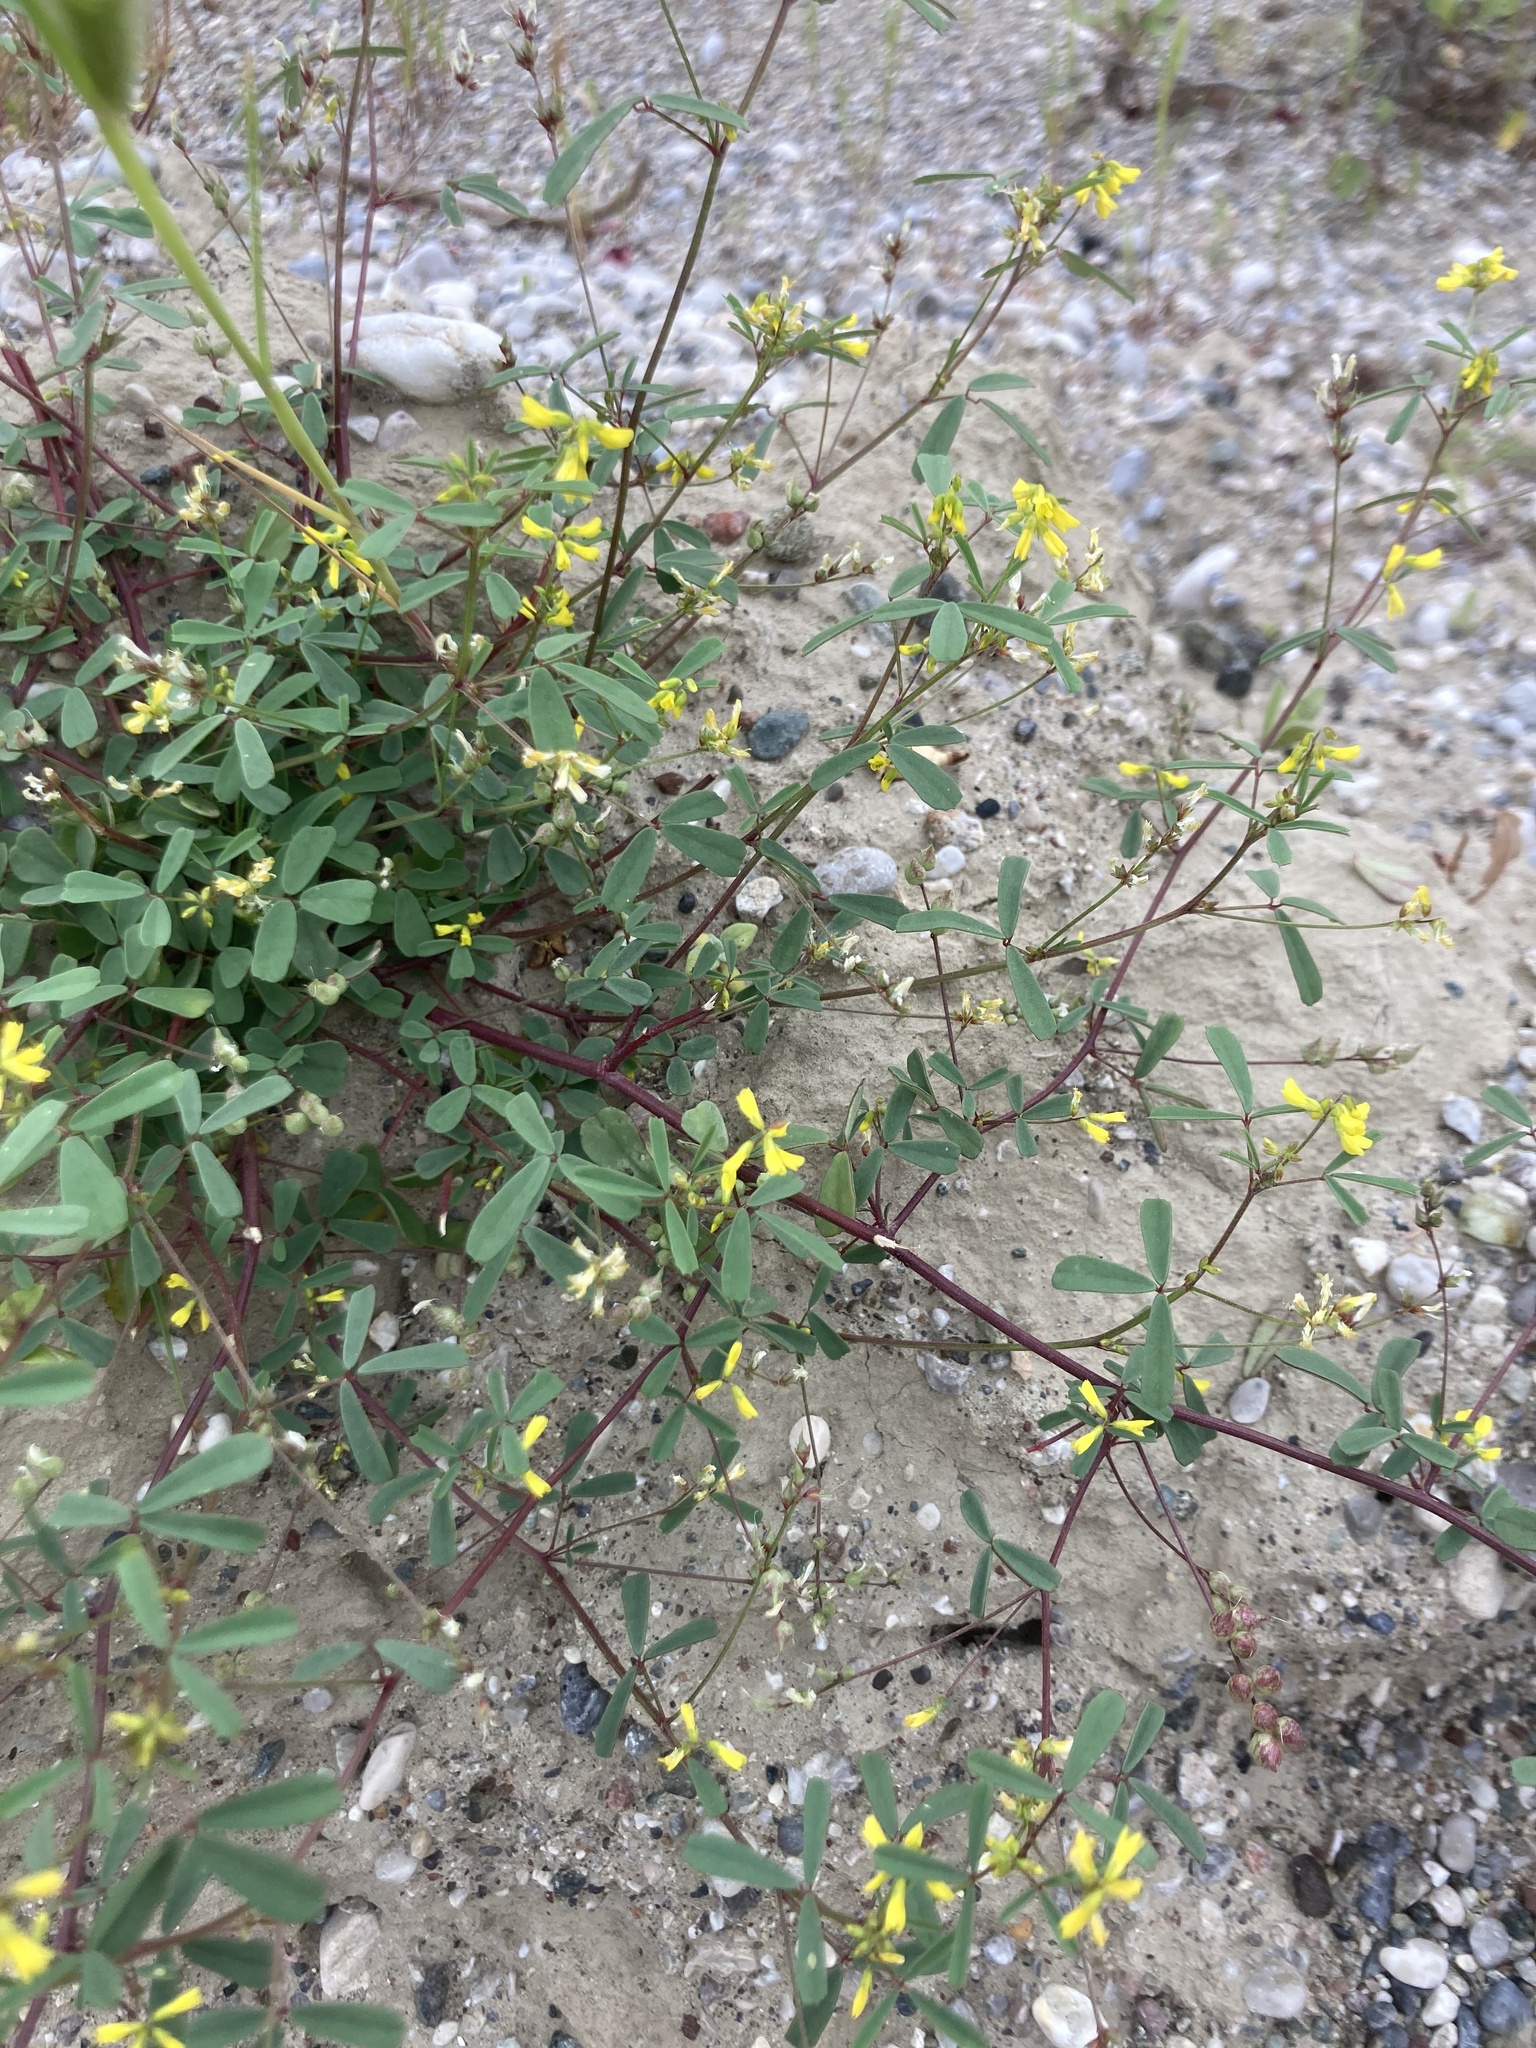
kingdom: Plantae
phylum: Tracheophyta
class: Magnoliopsida
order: Fabales
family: Fabaceae
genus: Melilotus
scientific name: Melilotus neapolitanus
